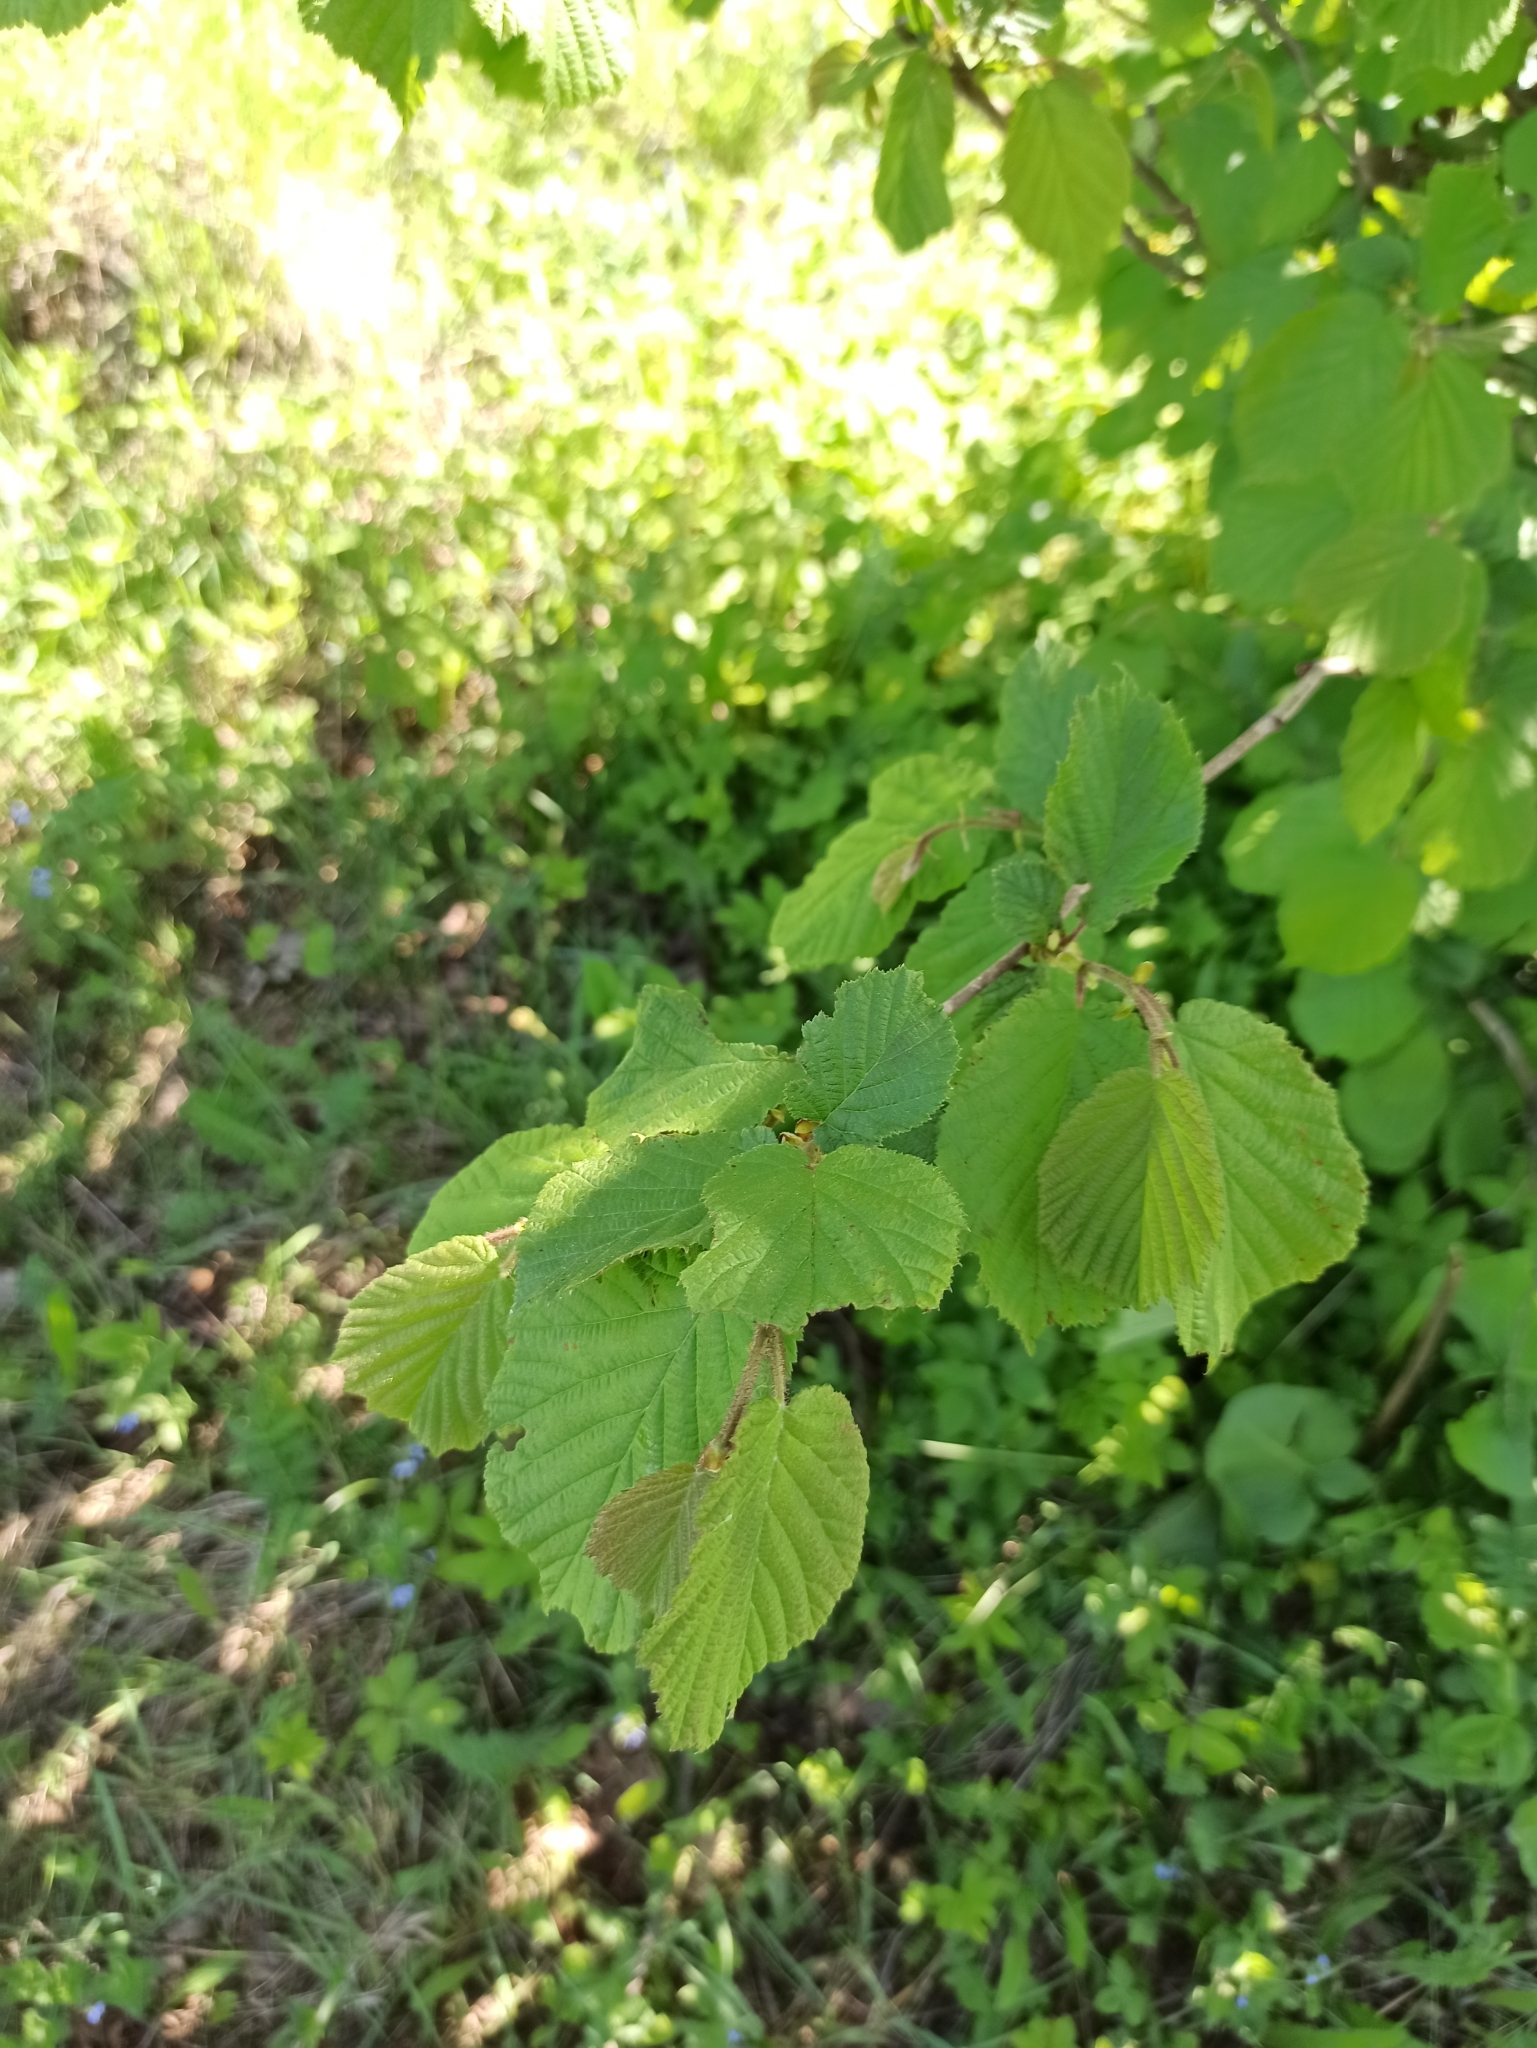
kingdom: Plantae
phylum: Tracheophyta
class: Magnoliopsida
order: Fagales
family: Betulaceae
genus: Corylus
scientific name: Corylus avellana
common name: European hazel
